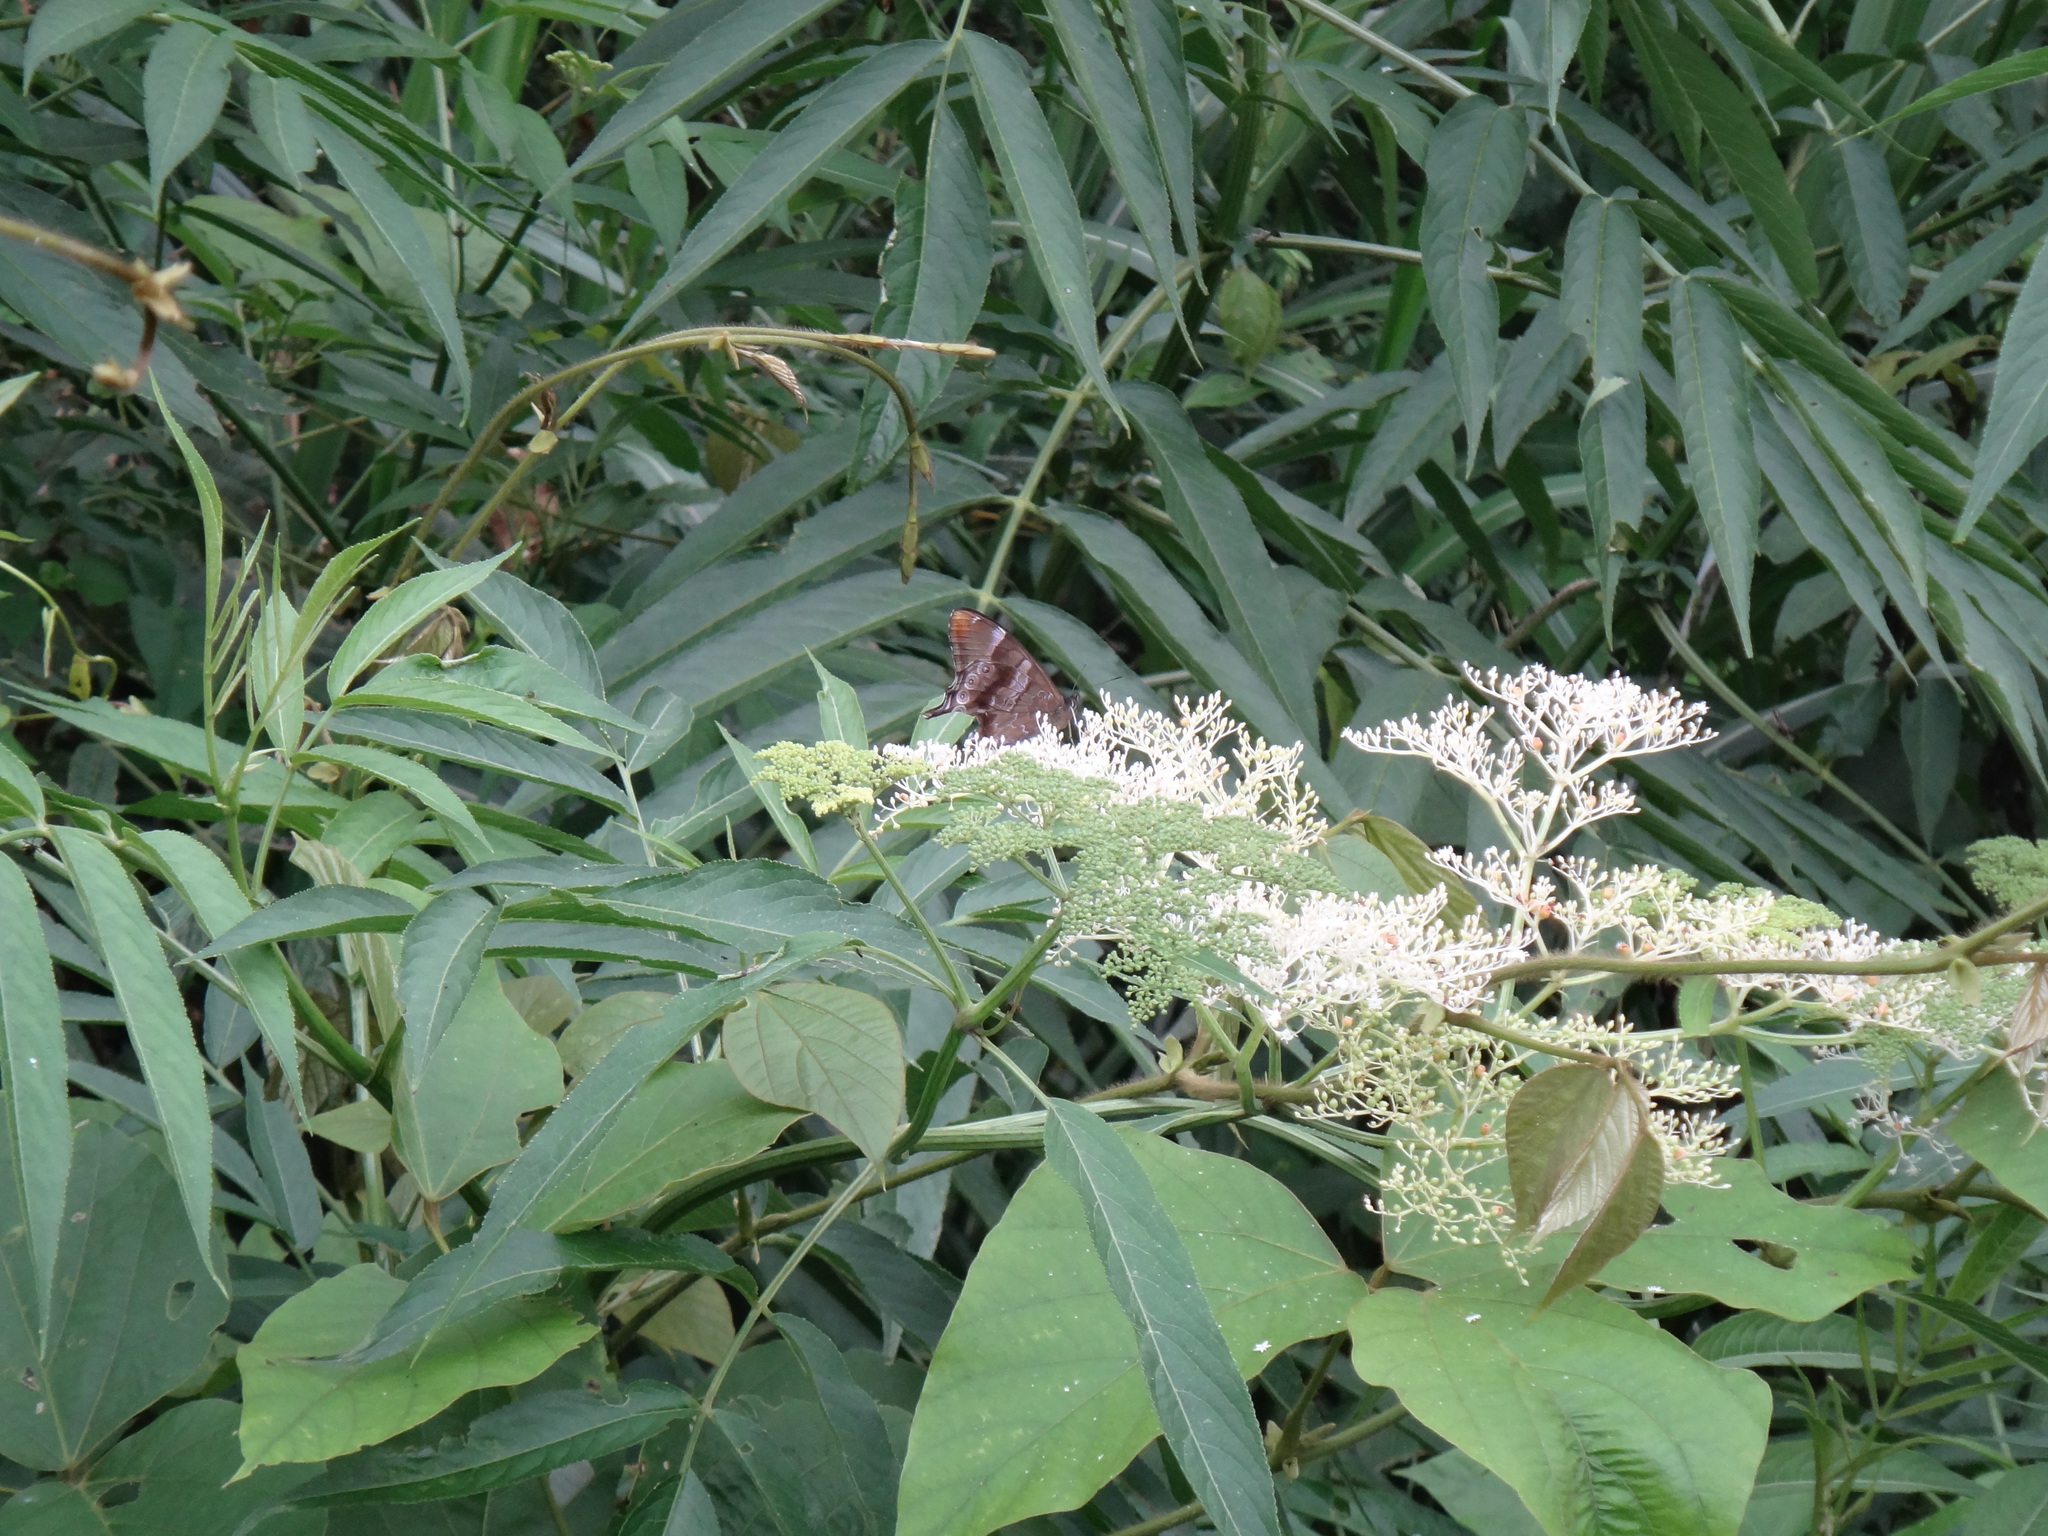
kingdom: Animalia
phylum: Arthropoda
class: Insecta
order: Lepidoptera
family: Nymphalidae
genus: Lethe
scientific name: Lethe dura
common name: Scarce lilacfork
